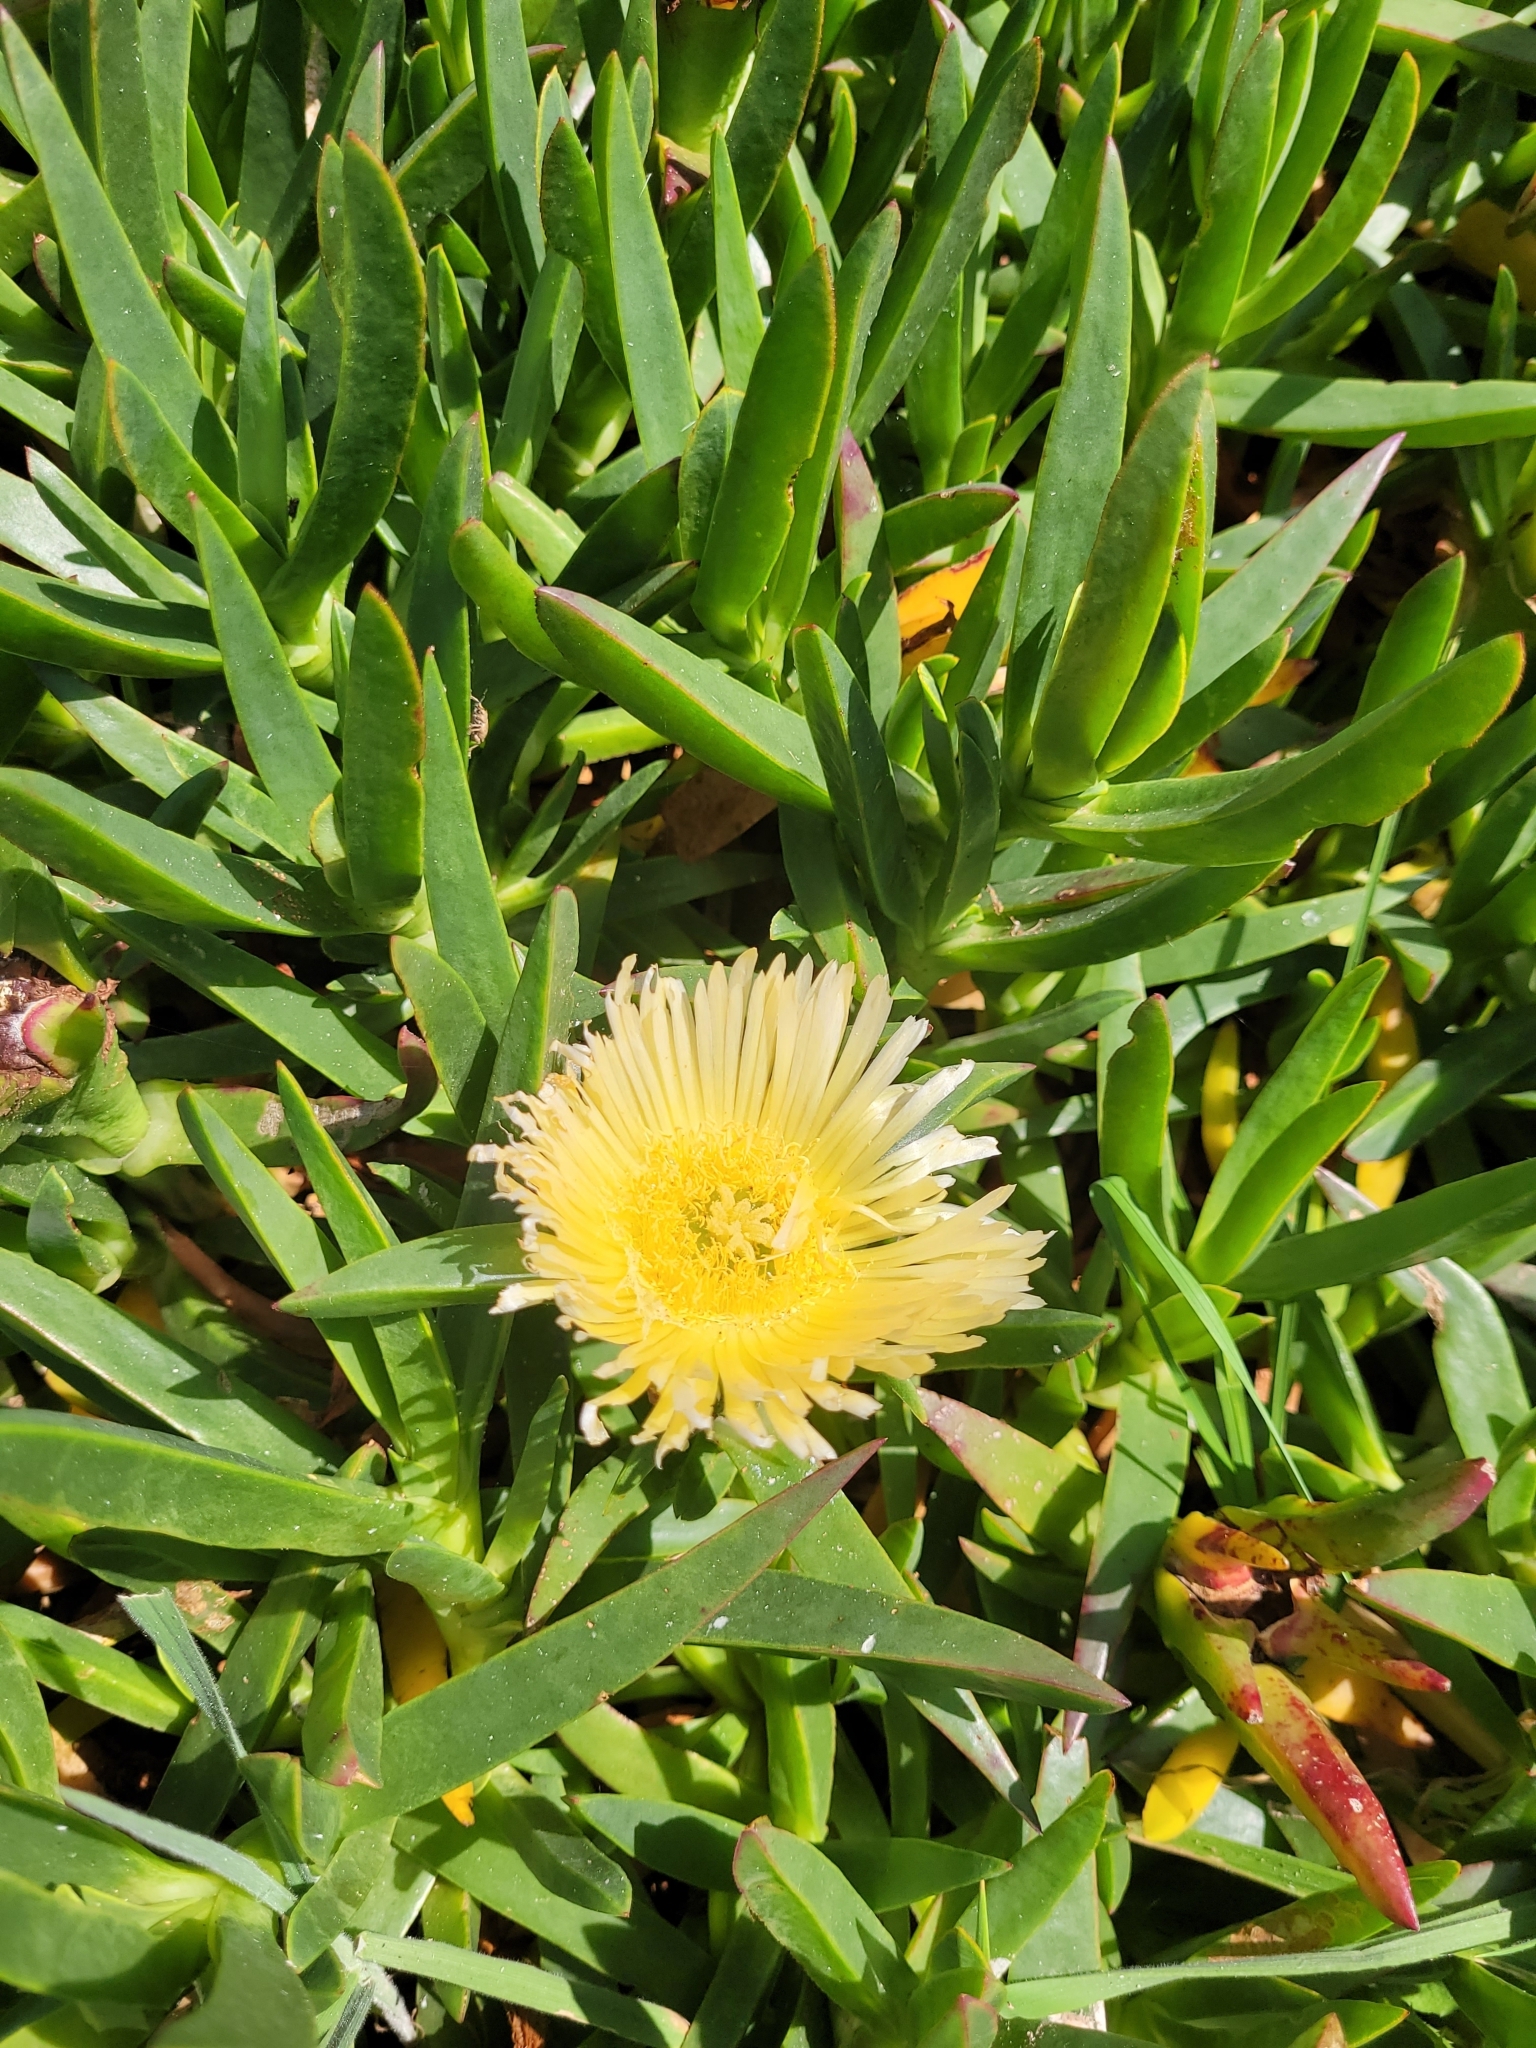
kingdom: Plantae
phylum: Tracheophyta
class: Magnoliopsida
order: Caryophyllales
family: Aizoaceae
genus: Carpobrotus
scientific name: Carpobrotus edulis
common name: Hottentot-fig
